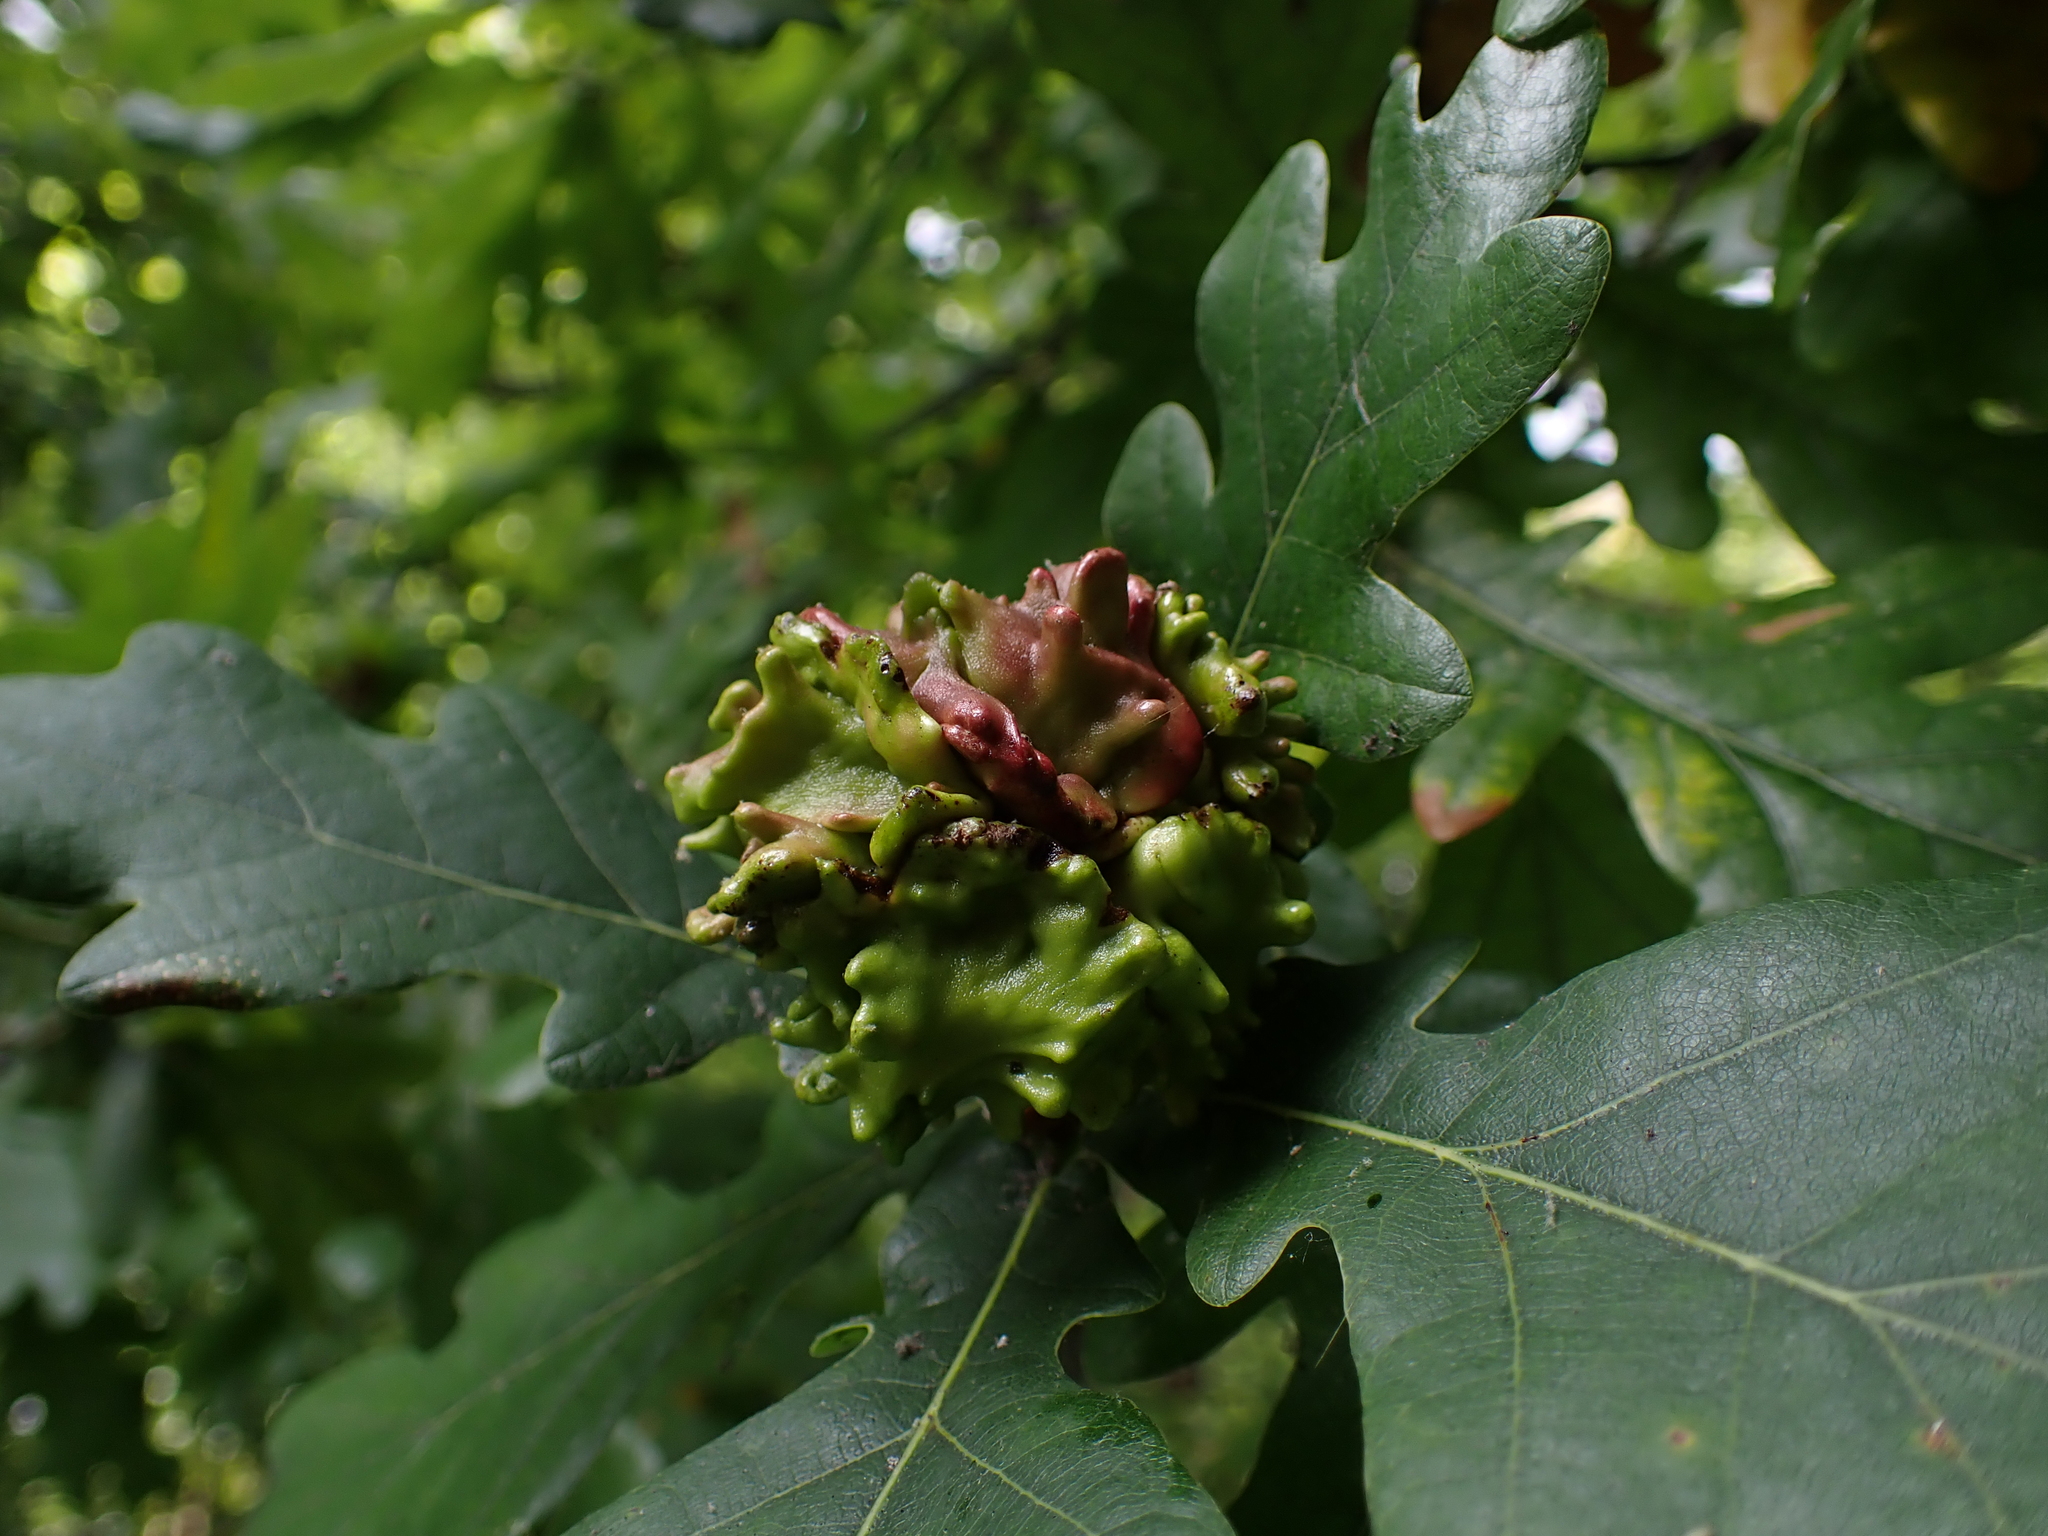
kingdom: Animalia
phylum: Arthropoda
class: Insecta
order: Hymenoptera
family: Cynipidae
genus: Andricus
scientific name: Andricus quercuscalicis
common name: Knopper gall
